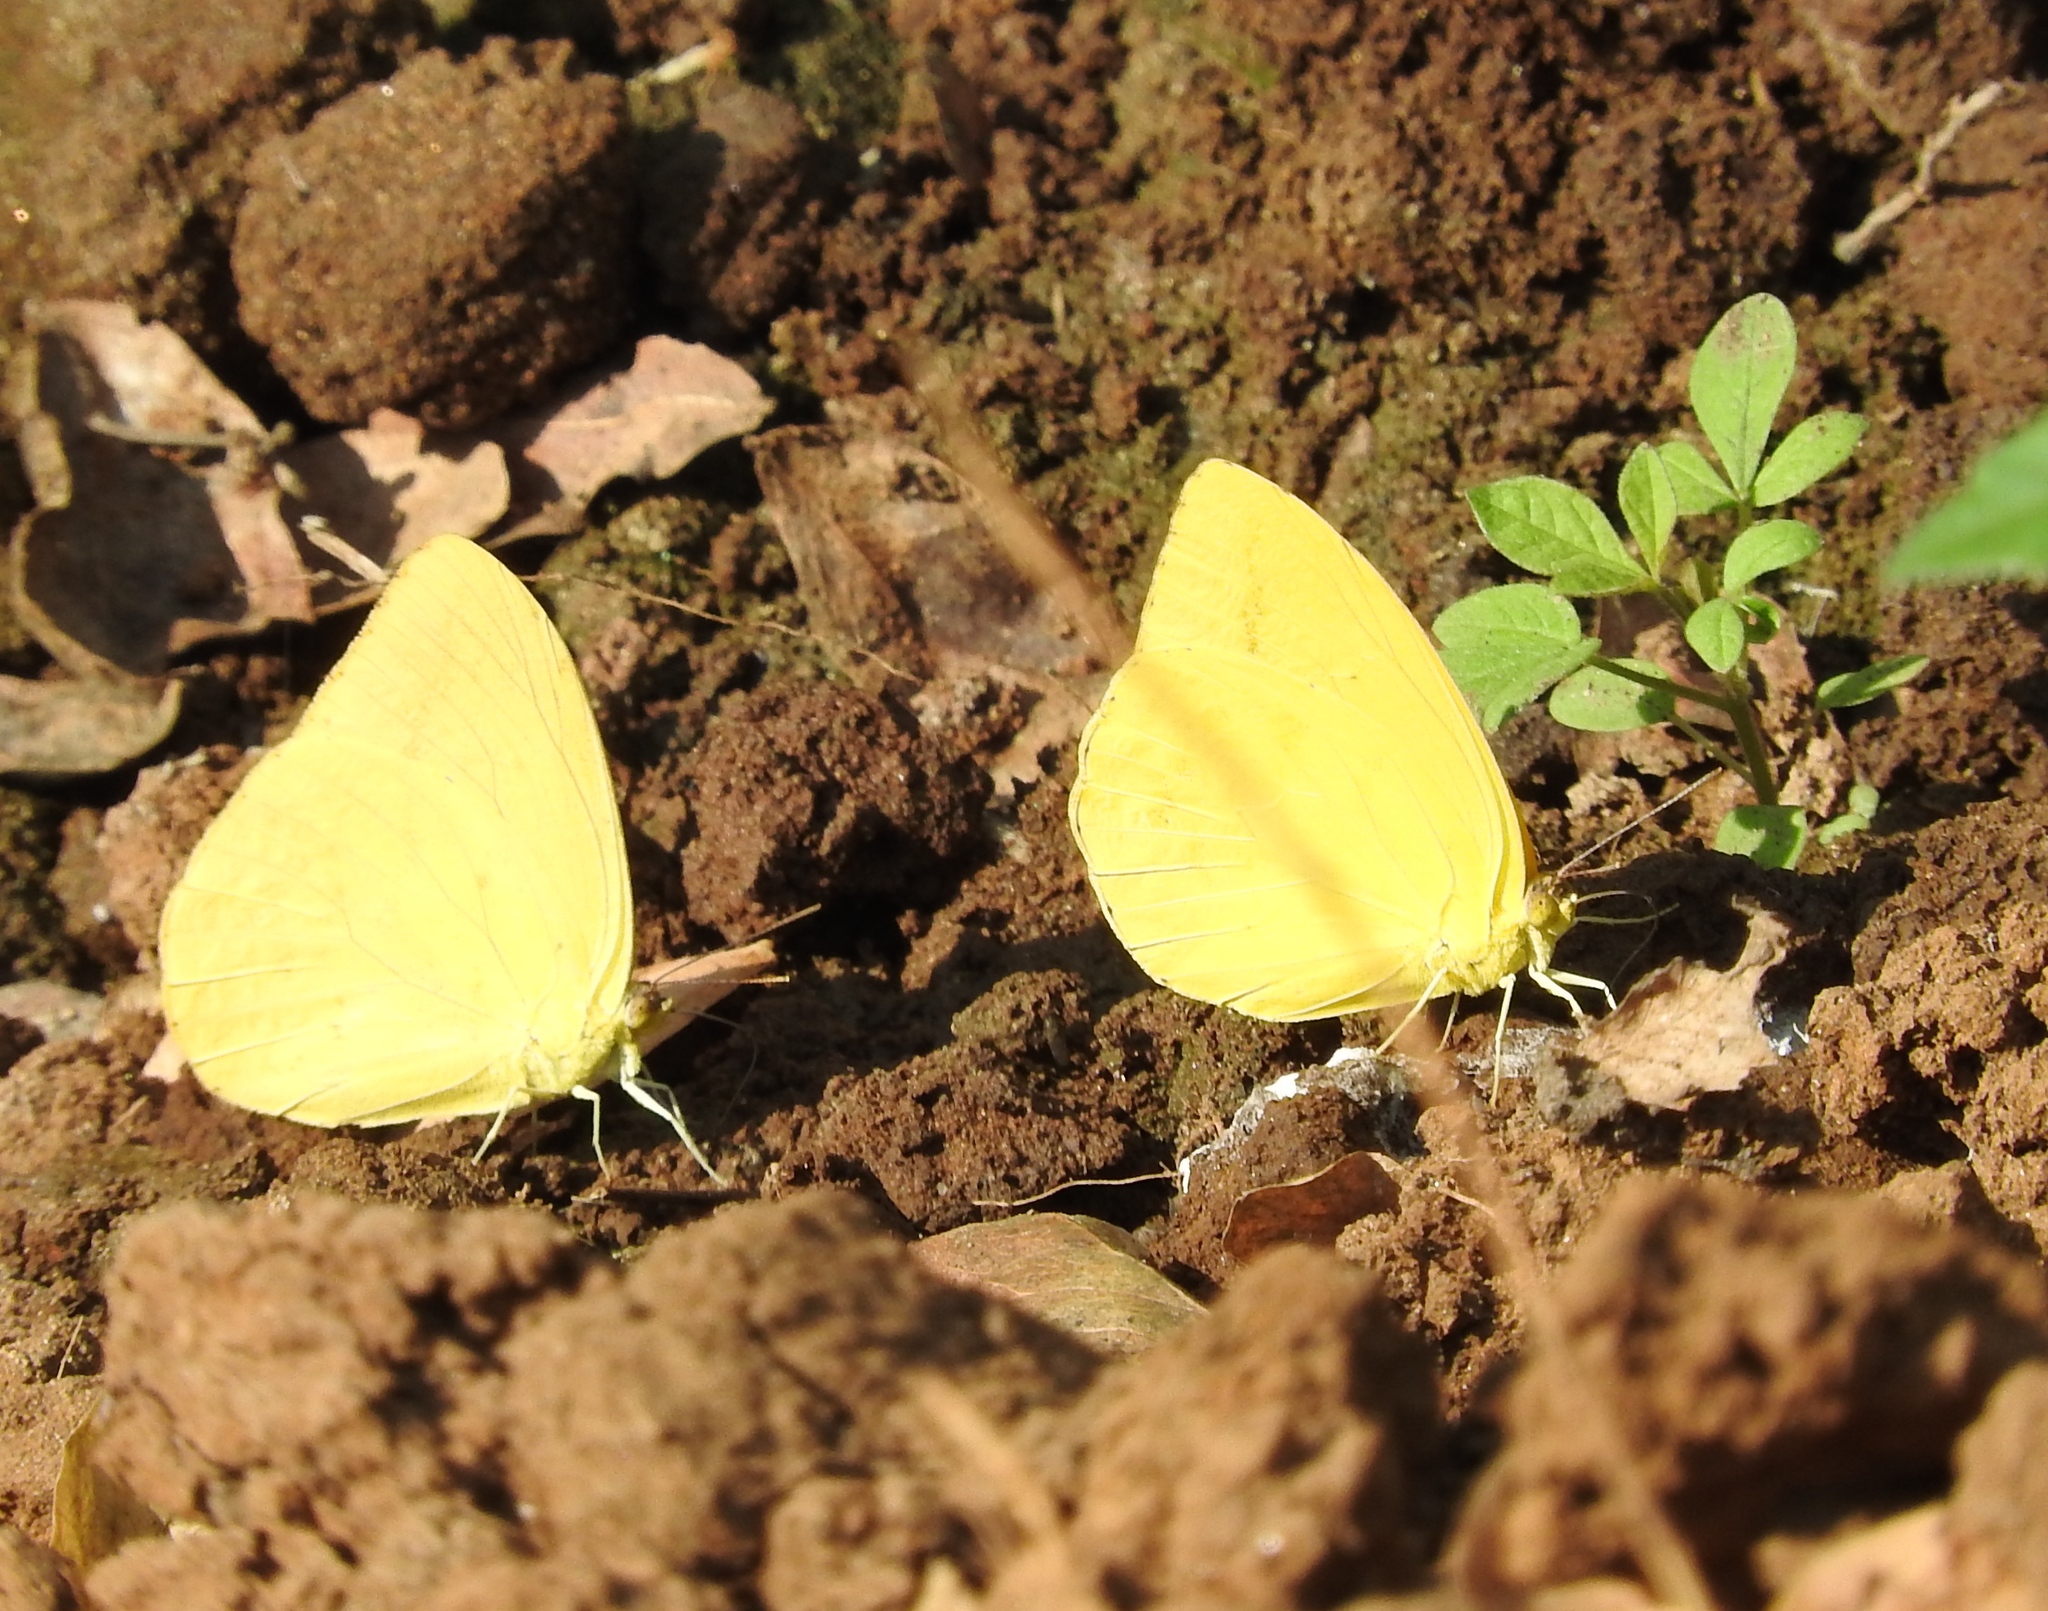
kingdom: Animalia
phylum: Arthropoda
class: Insecta
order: Lepidoptera
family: Pieridae
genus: Phoebis
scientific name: Phoebis agarithe
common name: Large orange sulphur
